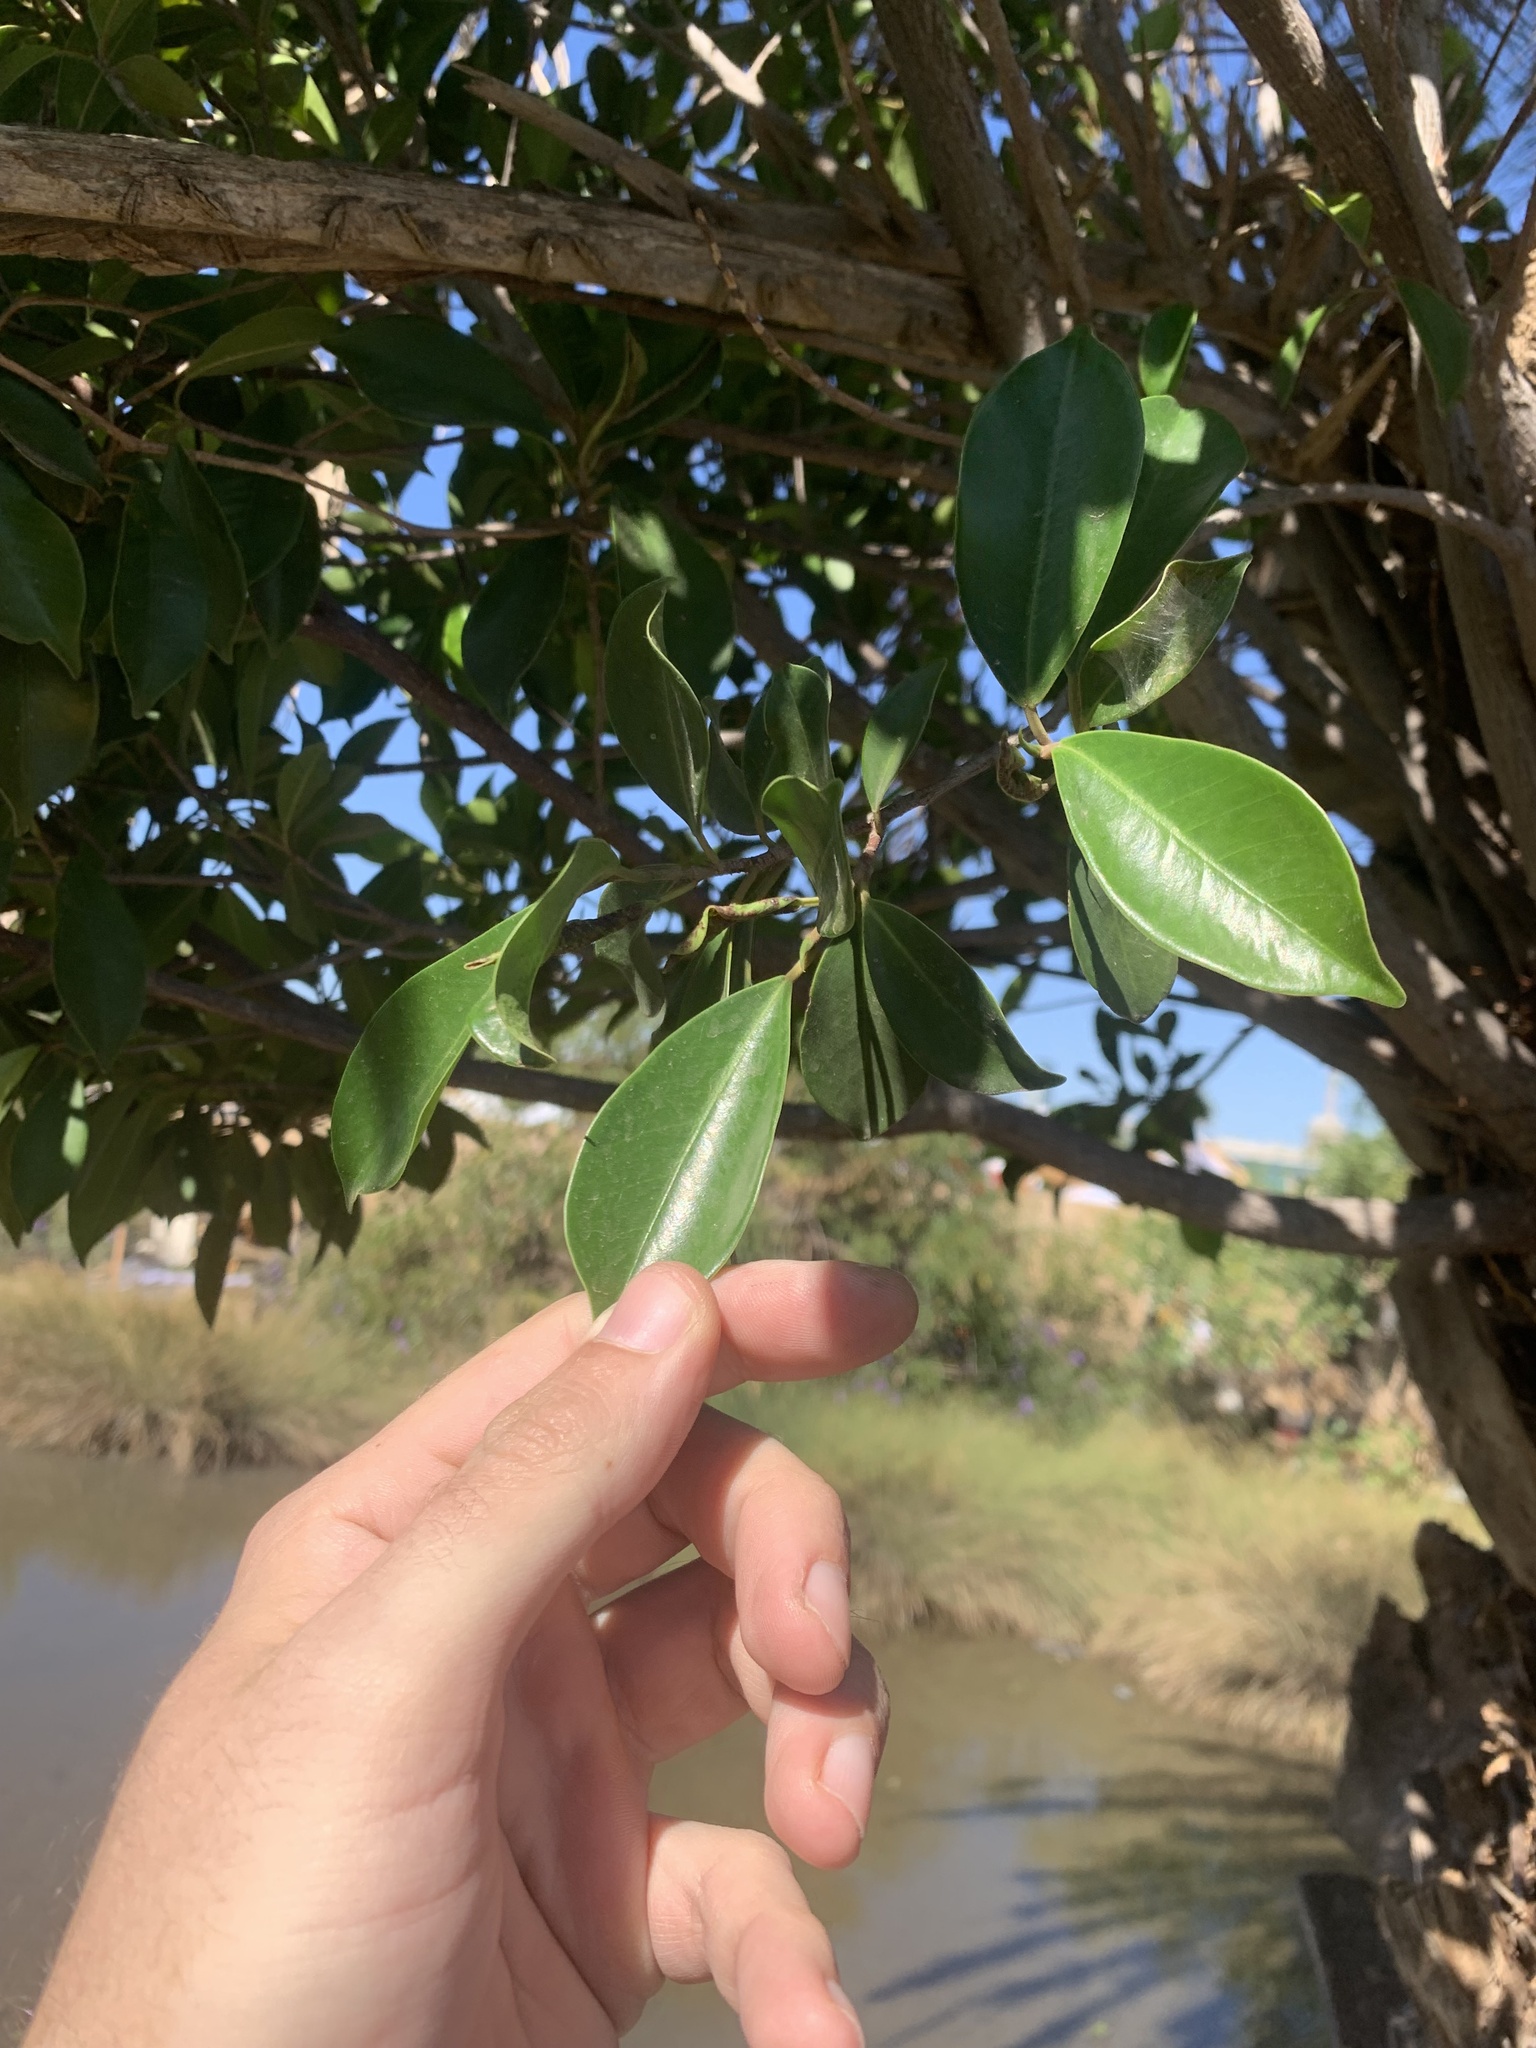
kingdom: Plantae
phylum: Tracheophyta
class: Magnoliopsida
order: Rosales
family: Moraceae
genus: Ficus
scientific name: Ficus luschnathiana
